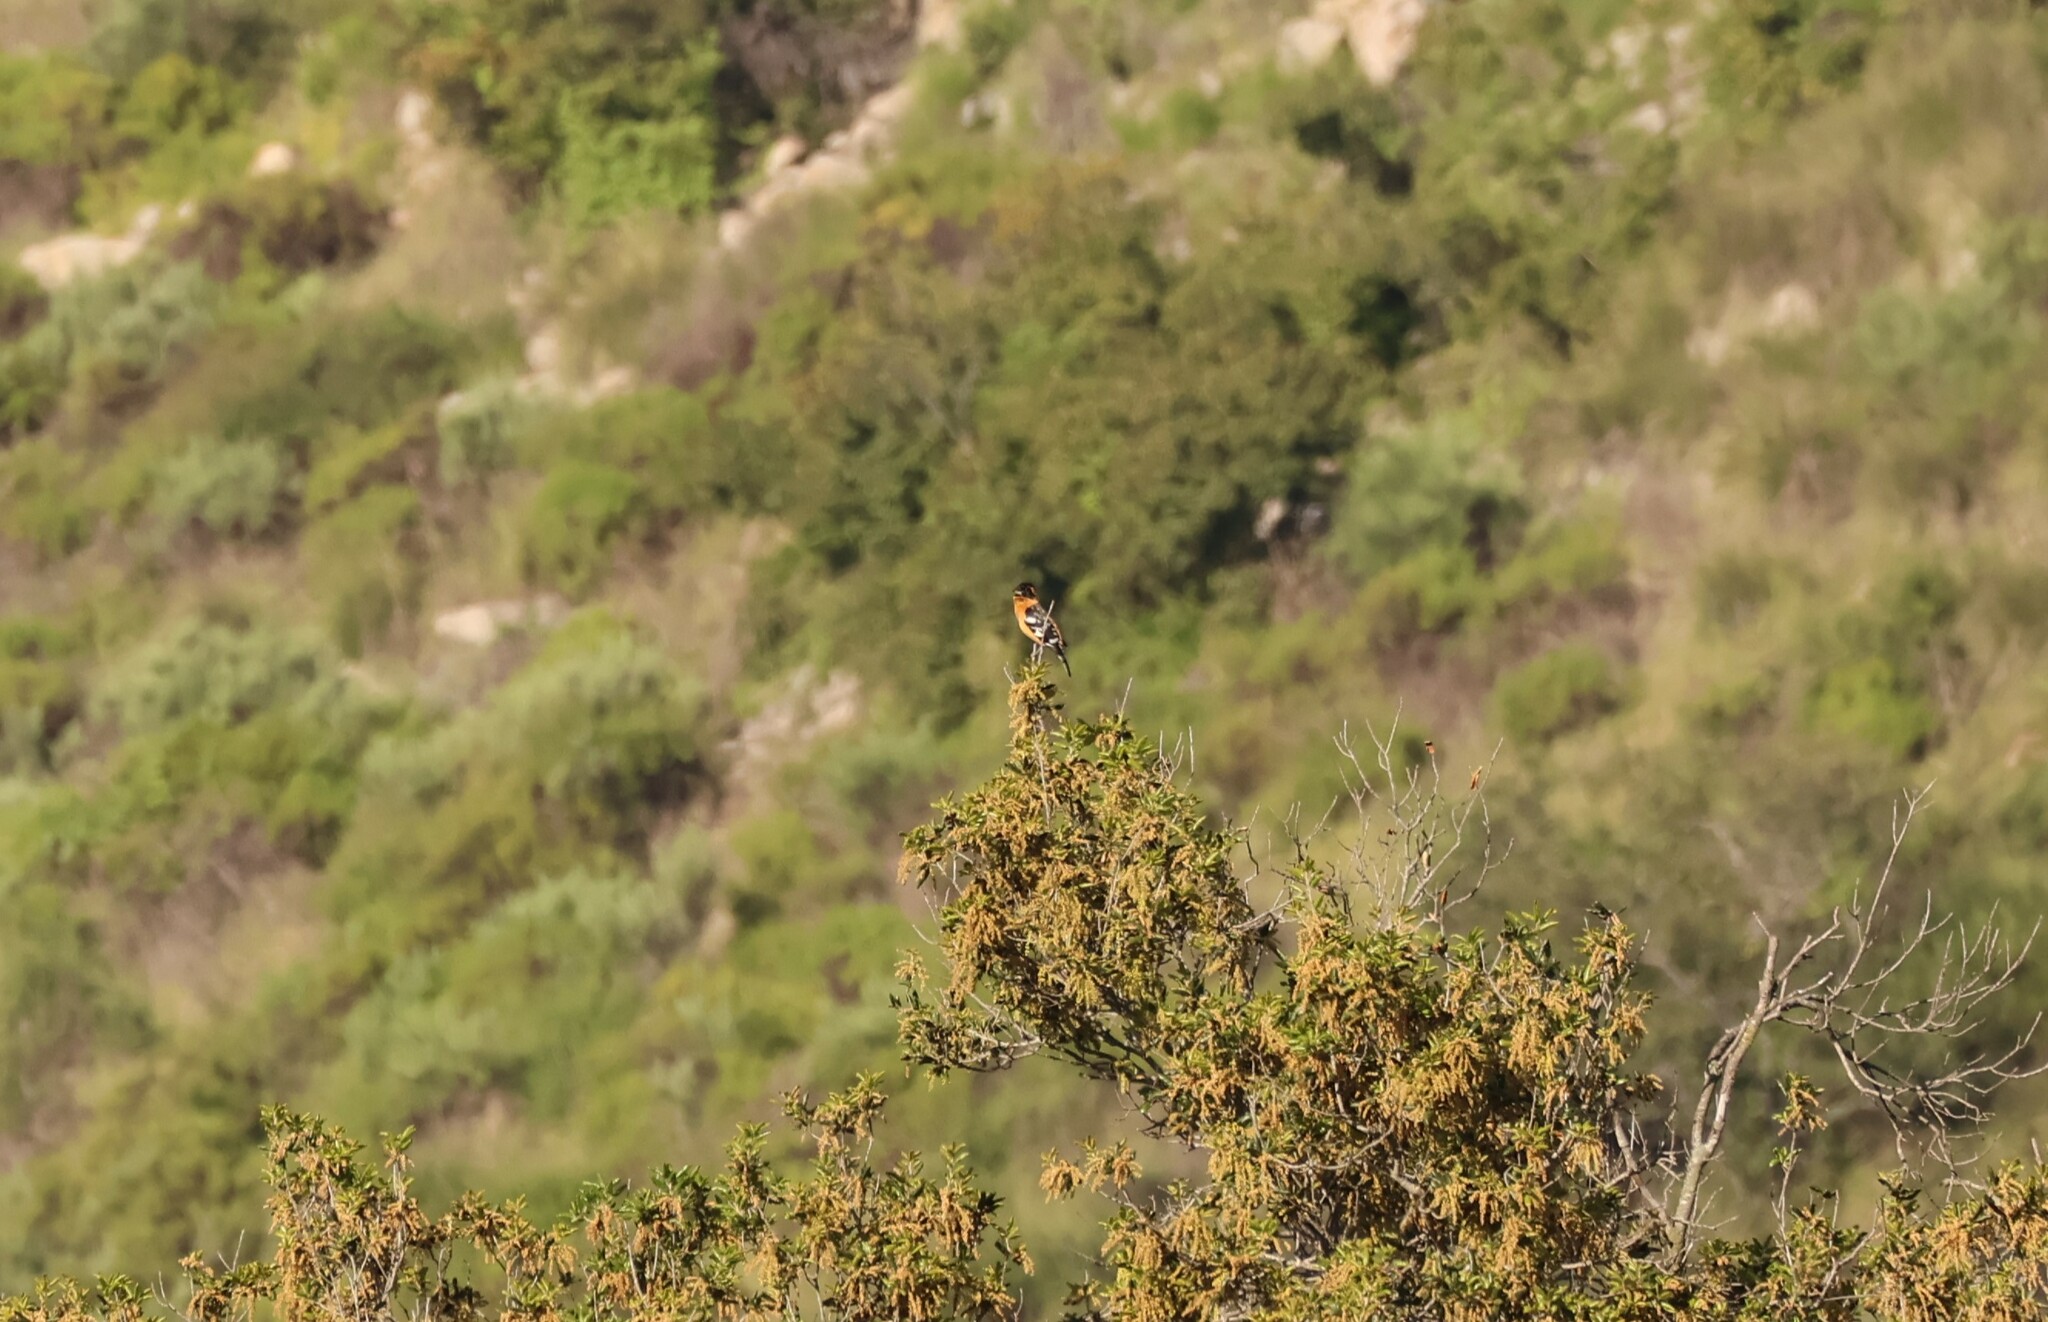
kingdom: Animalia
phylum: Chordata
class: Aves
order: Passeriformes
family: Cardinalidae
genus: Pheucticus
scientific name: Pheucticus melanocephalus
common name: Black-headed grosbeak
